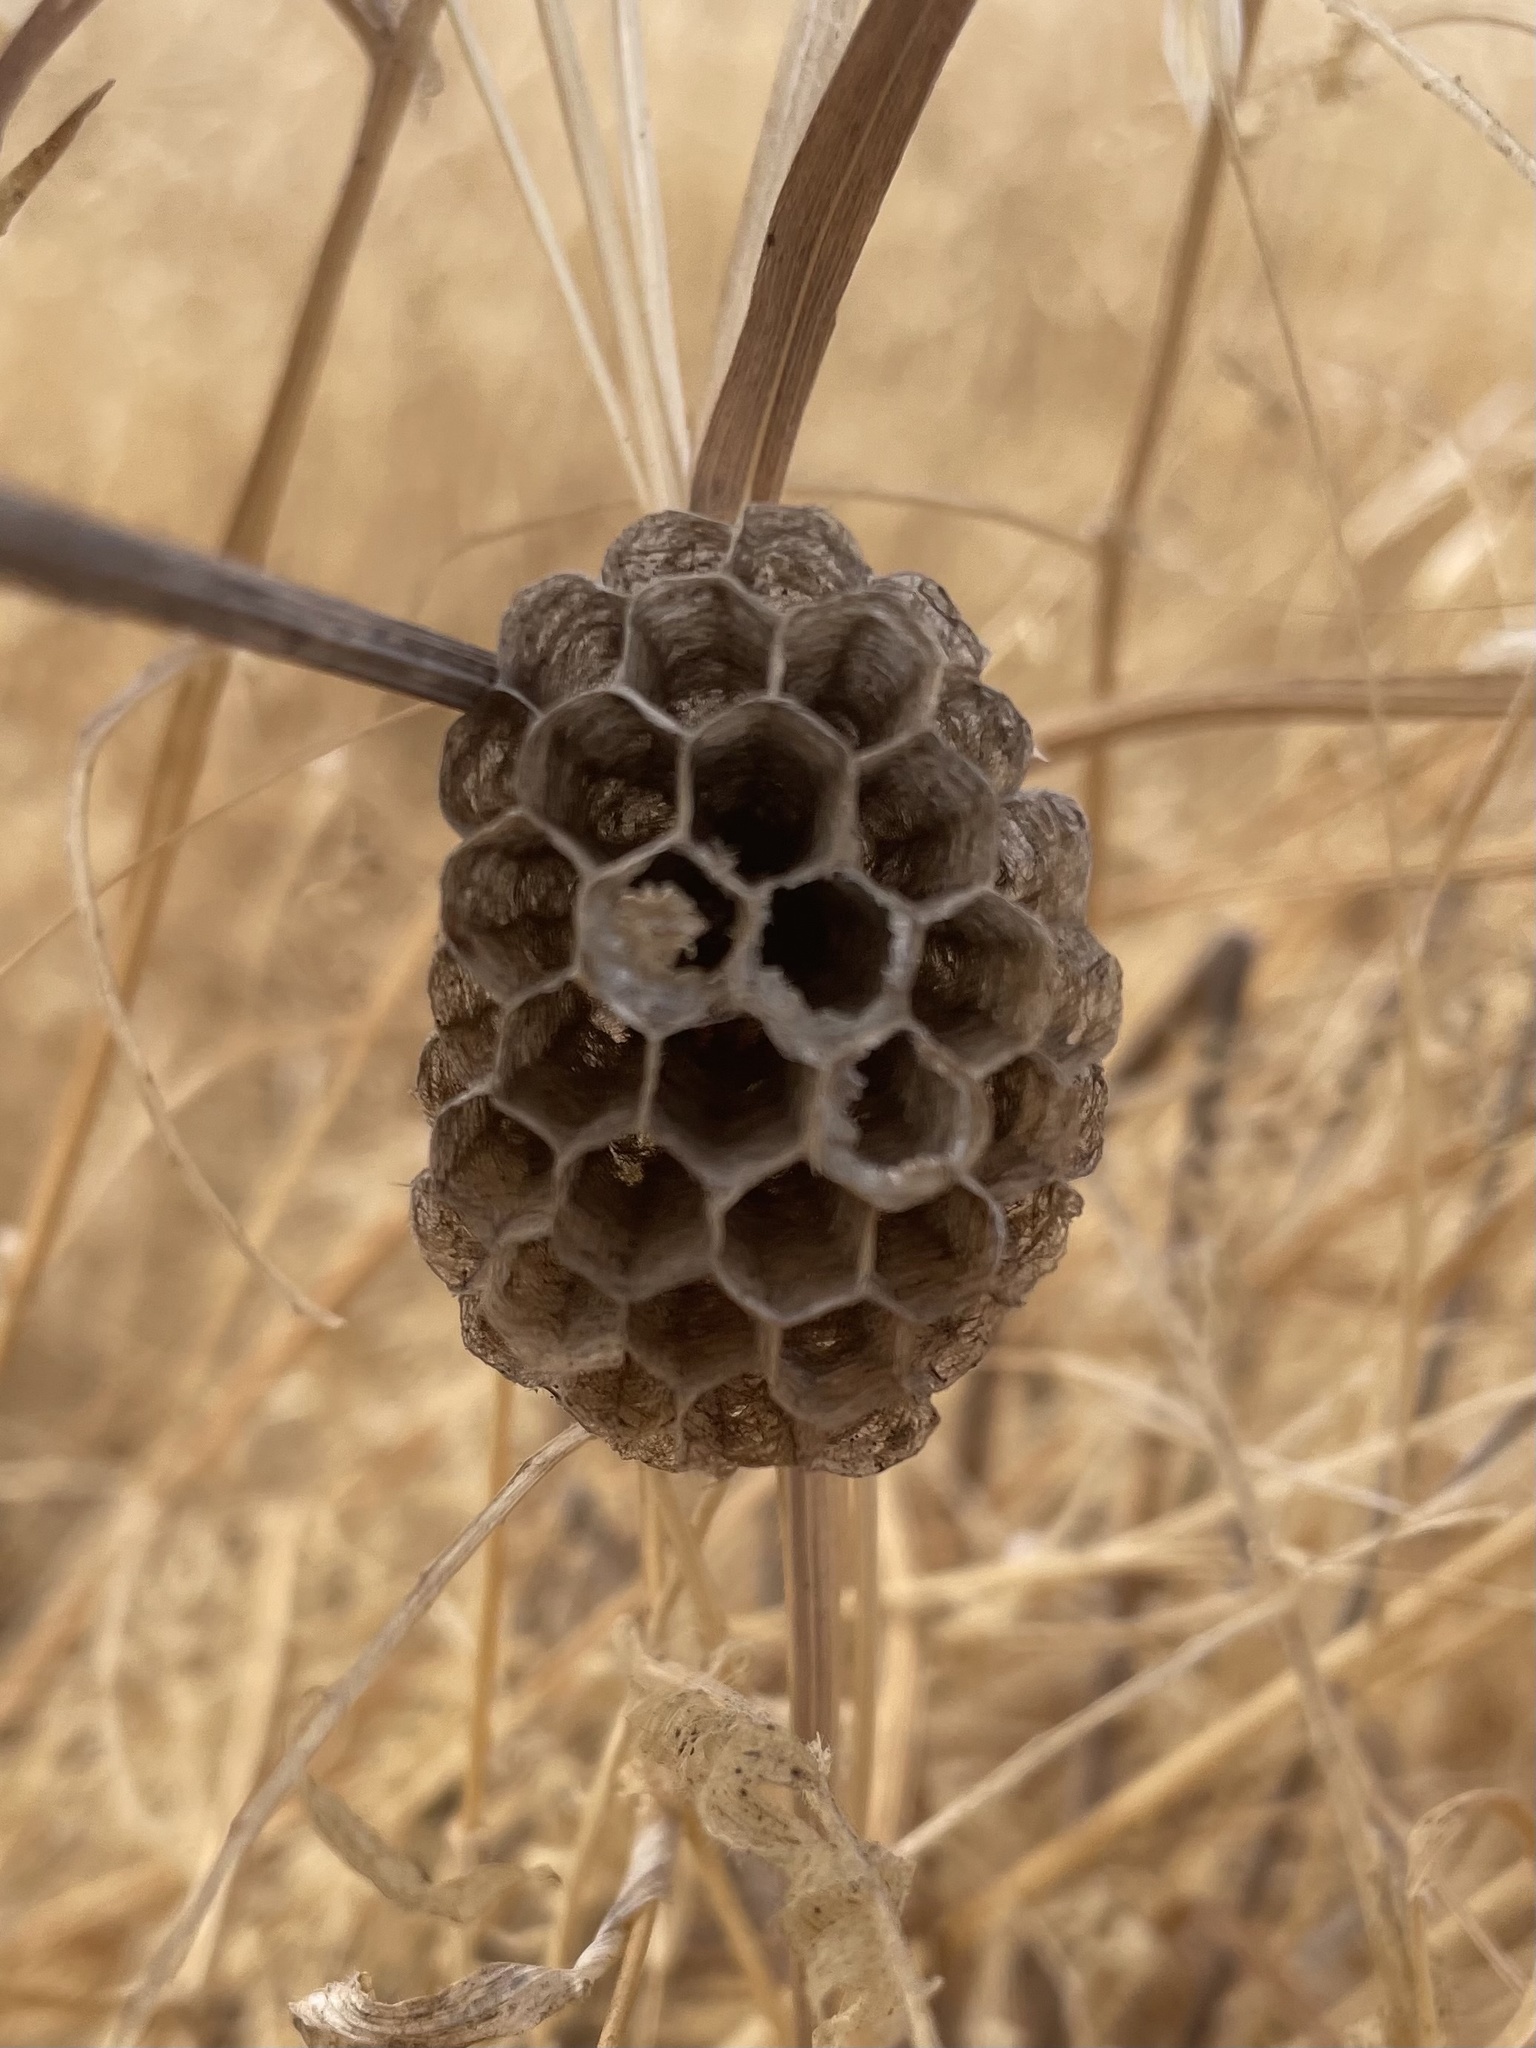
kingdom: Animalia
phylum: Arthropoda
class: Insecta
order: Hymenoptera
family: Vespidae
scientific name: Vespidae
